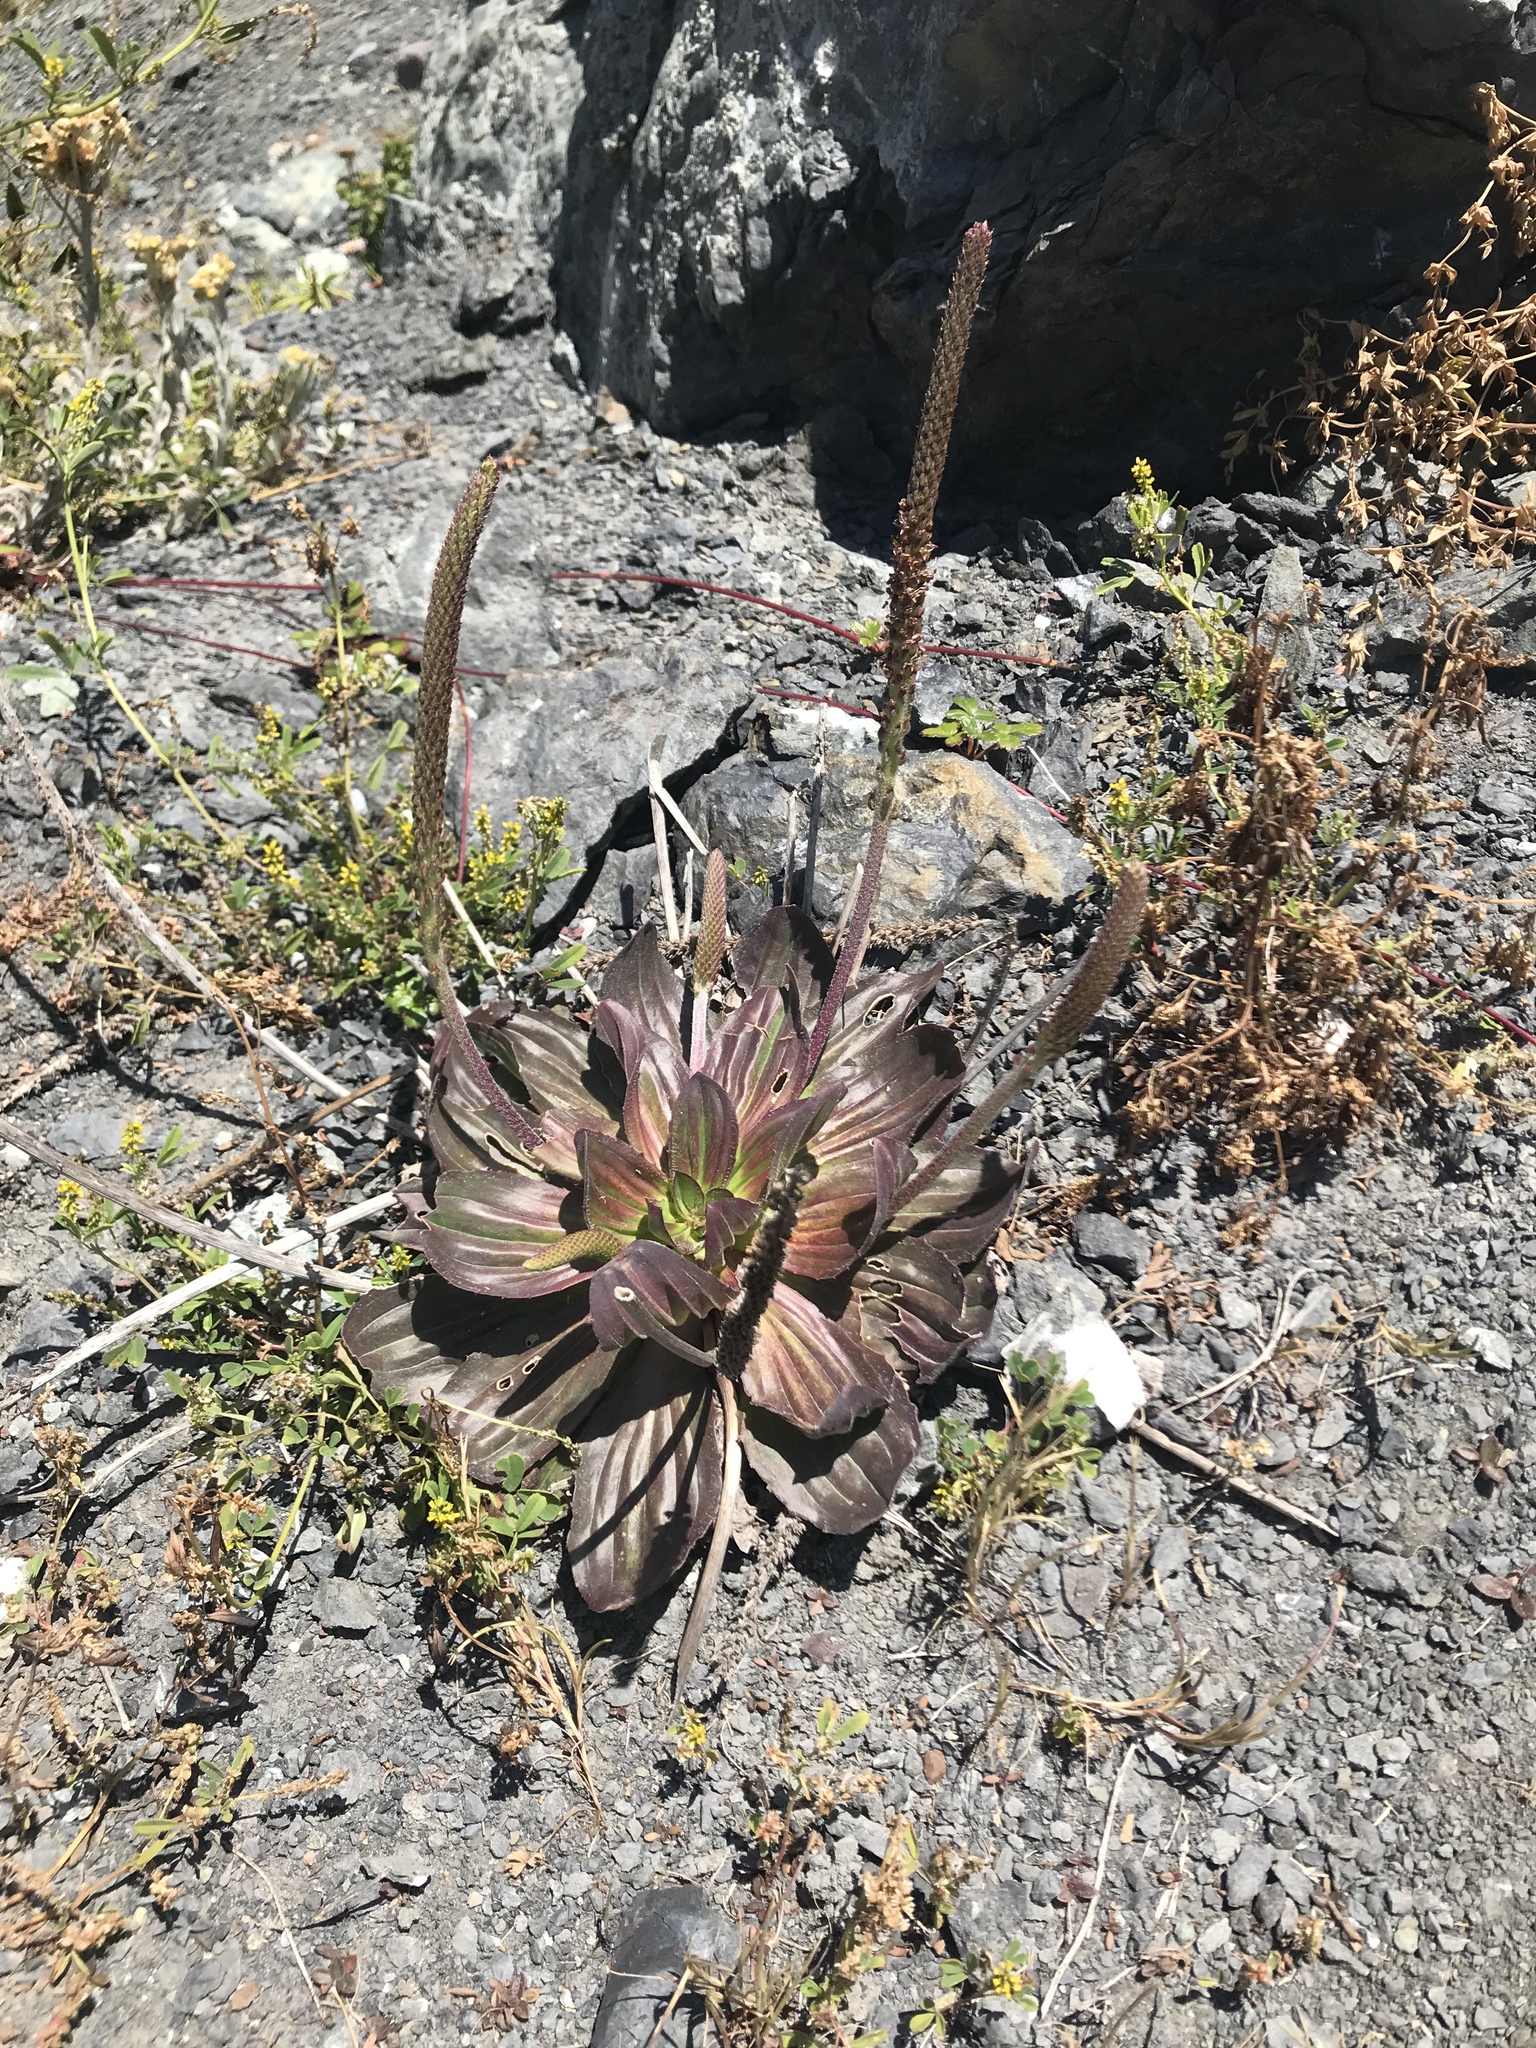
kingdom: Plantae
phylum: Tracheophyta
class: Magnoliopsida
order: Lamiales
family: Plantaginaceae
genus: Plantago
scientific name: Plantago subnuda
